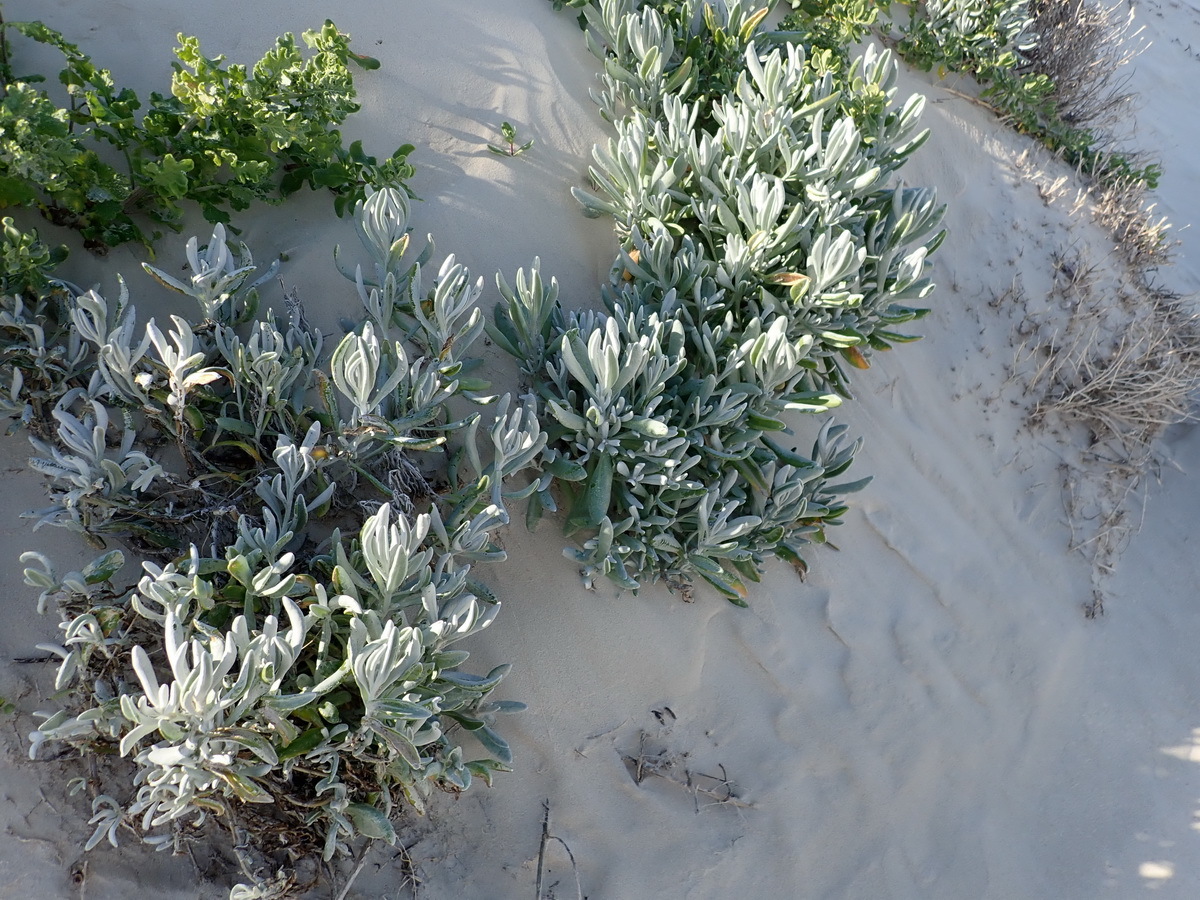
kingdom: Plantae
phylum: Tracheophyta
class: Magnoliopsida
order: Asterales
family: Asteraceae
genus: Didelta
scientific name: Didelta carnosa
